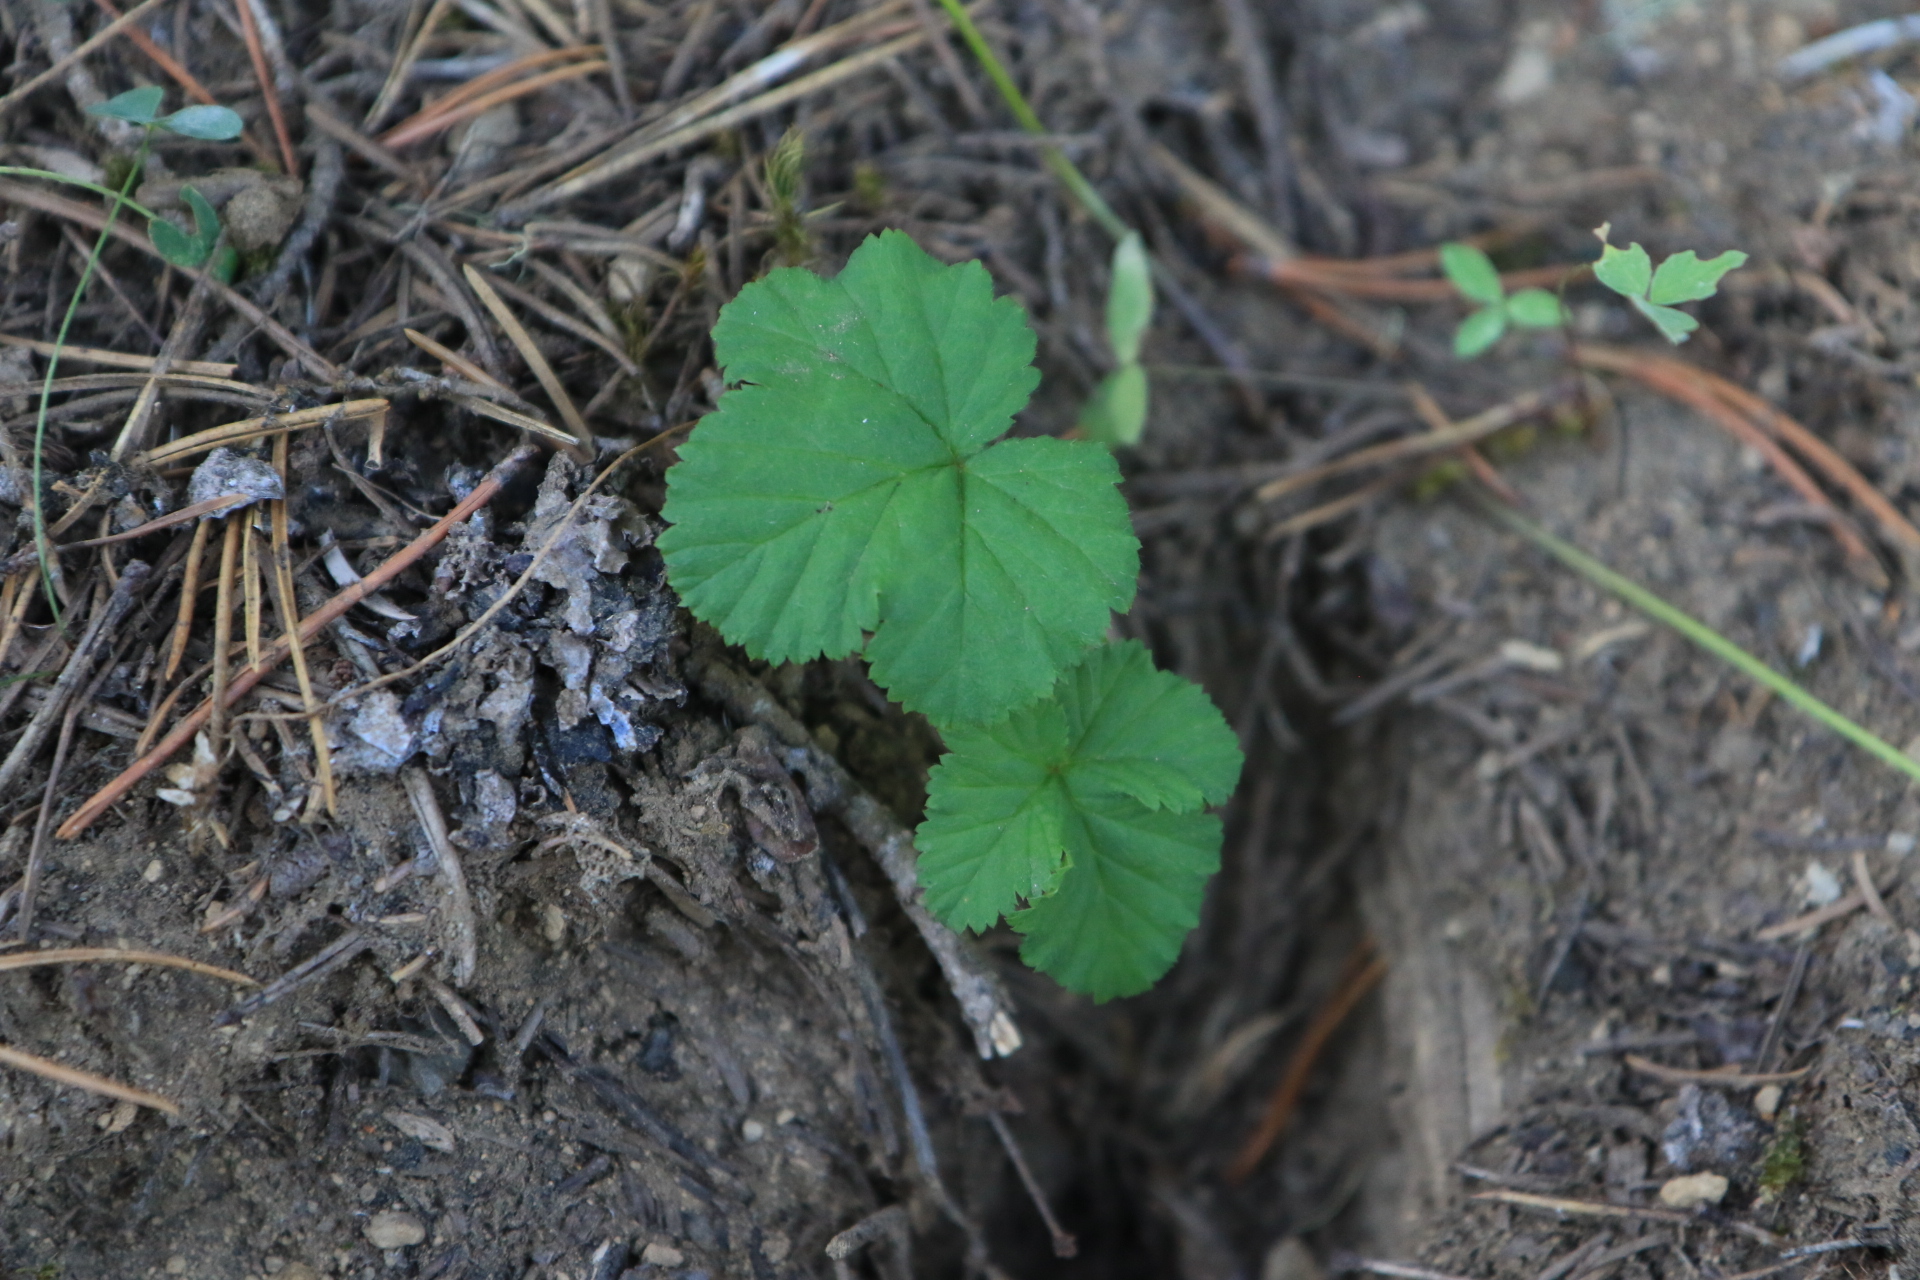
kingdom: Plantae
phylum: Tracheophyta
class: Magnoliopsida
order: Rosales
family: Rosaceae
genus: Rubus
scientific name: Rubus lasiococcus
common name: Dwarf bramble
